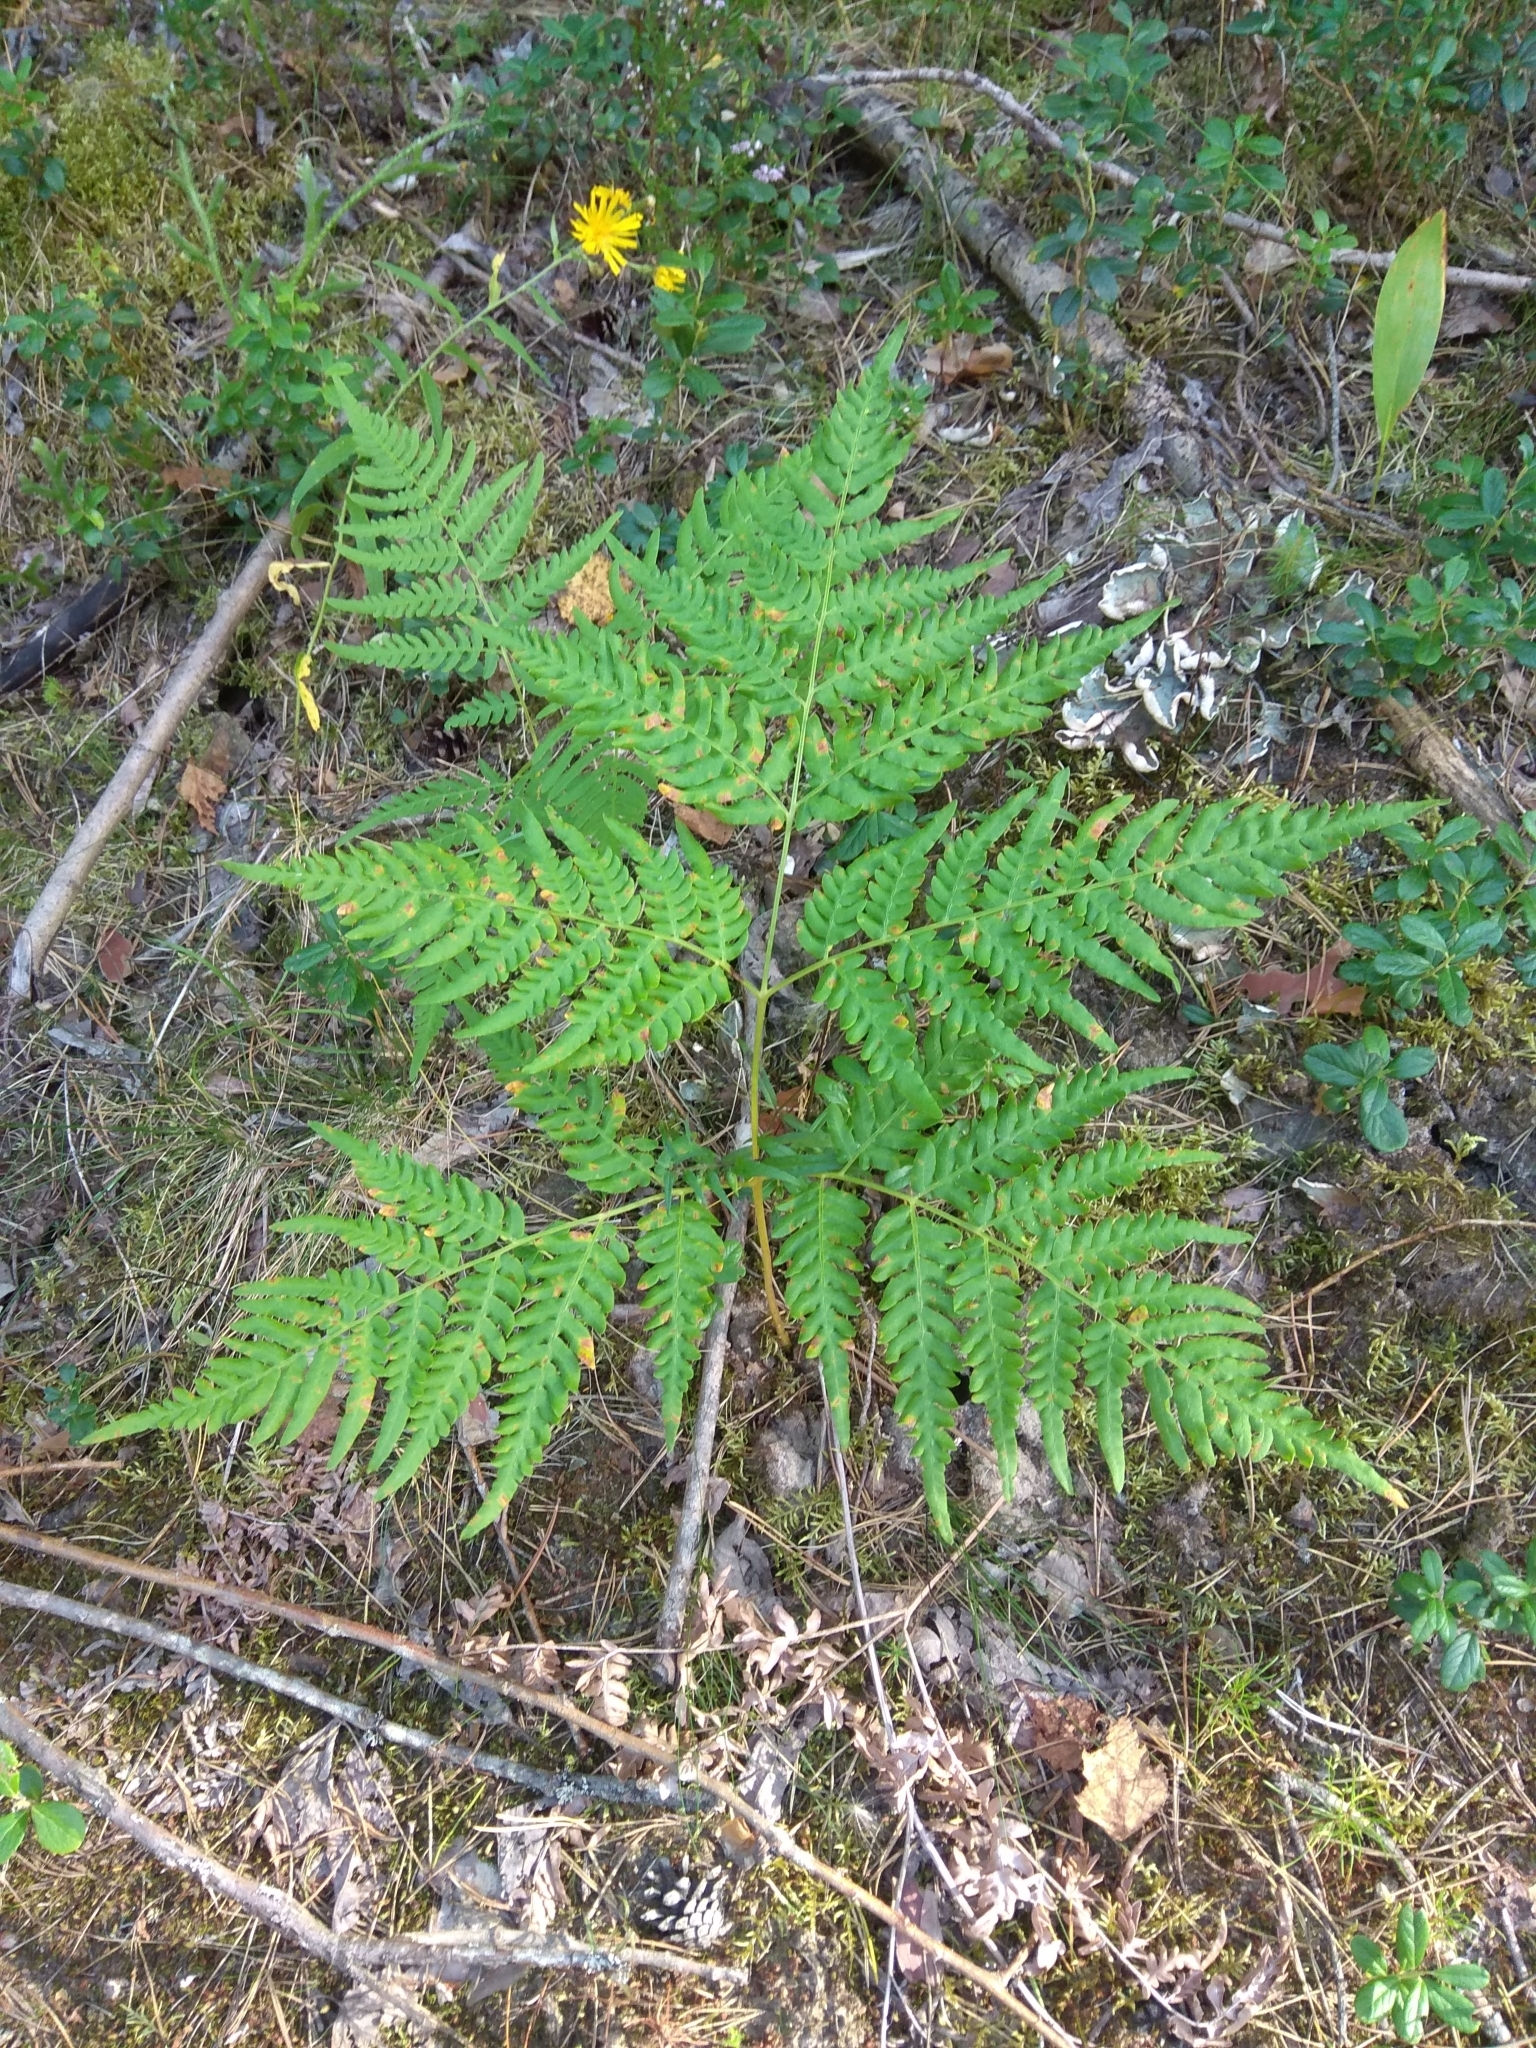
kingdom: Plantae
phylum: Tracheophyta
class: Polypodiopsida
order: Polypodiales
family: Dennstaedtiaceae
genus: Pteridium
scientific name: Pteridium aquilinum
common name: Bracken
